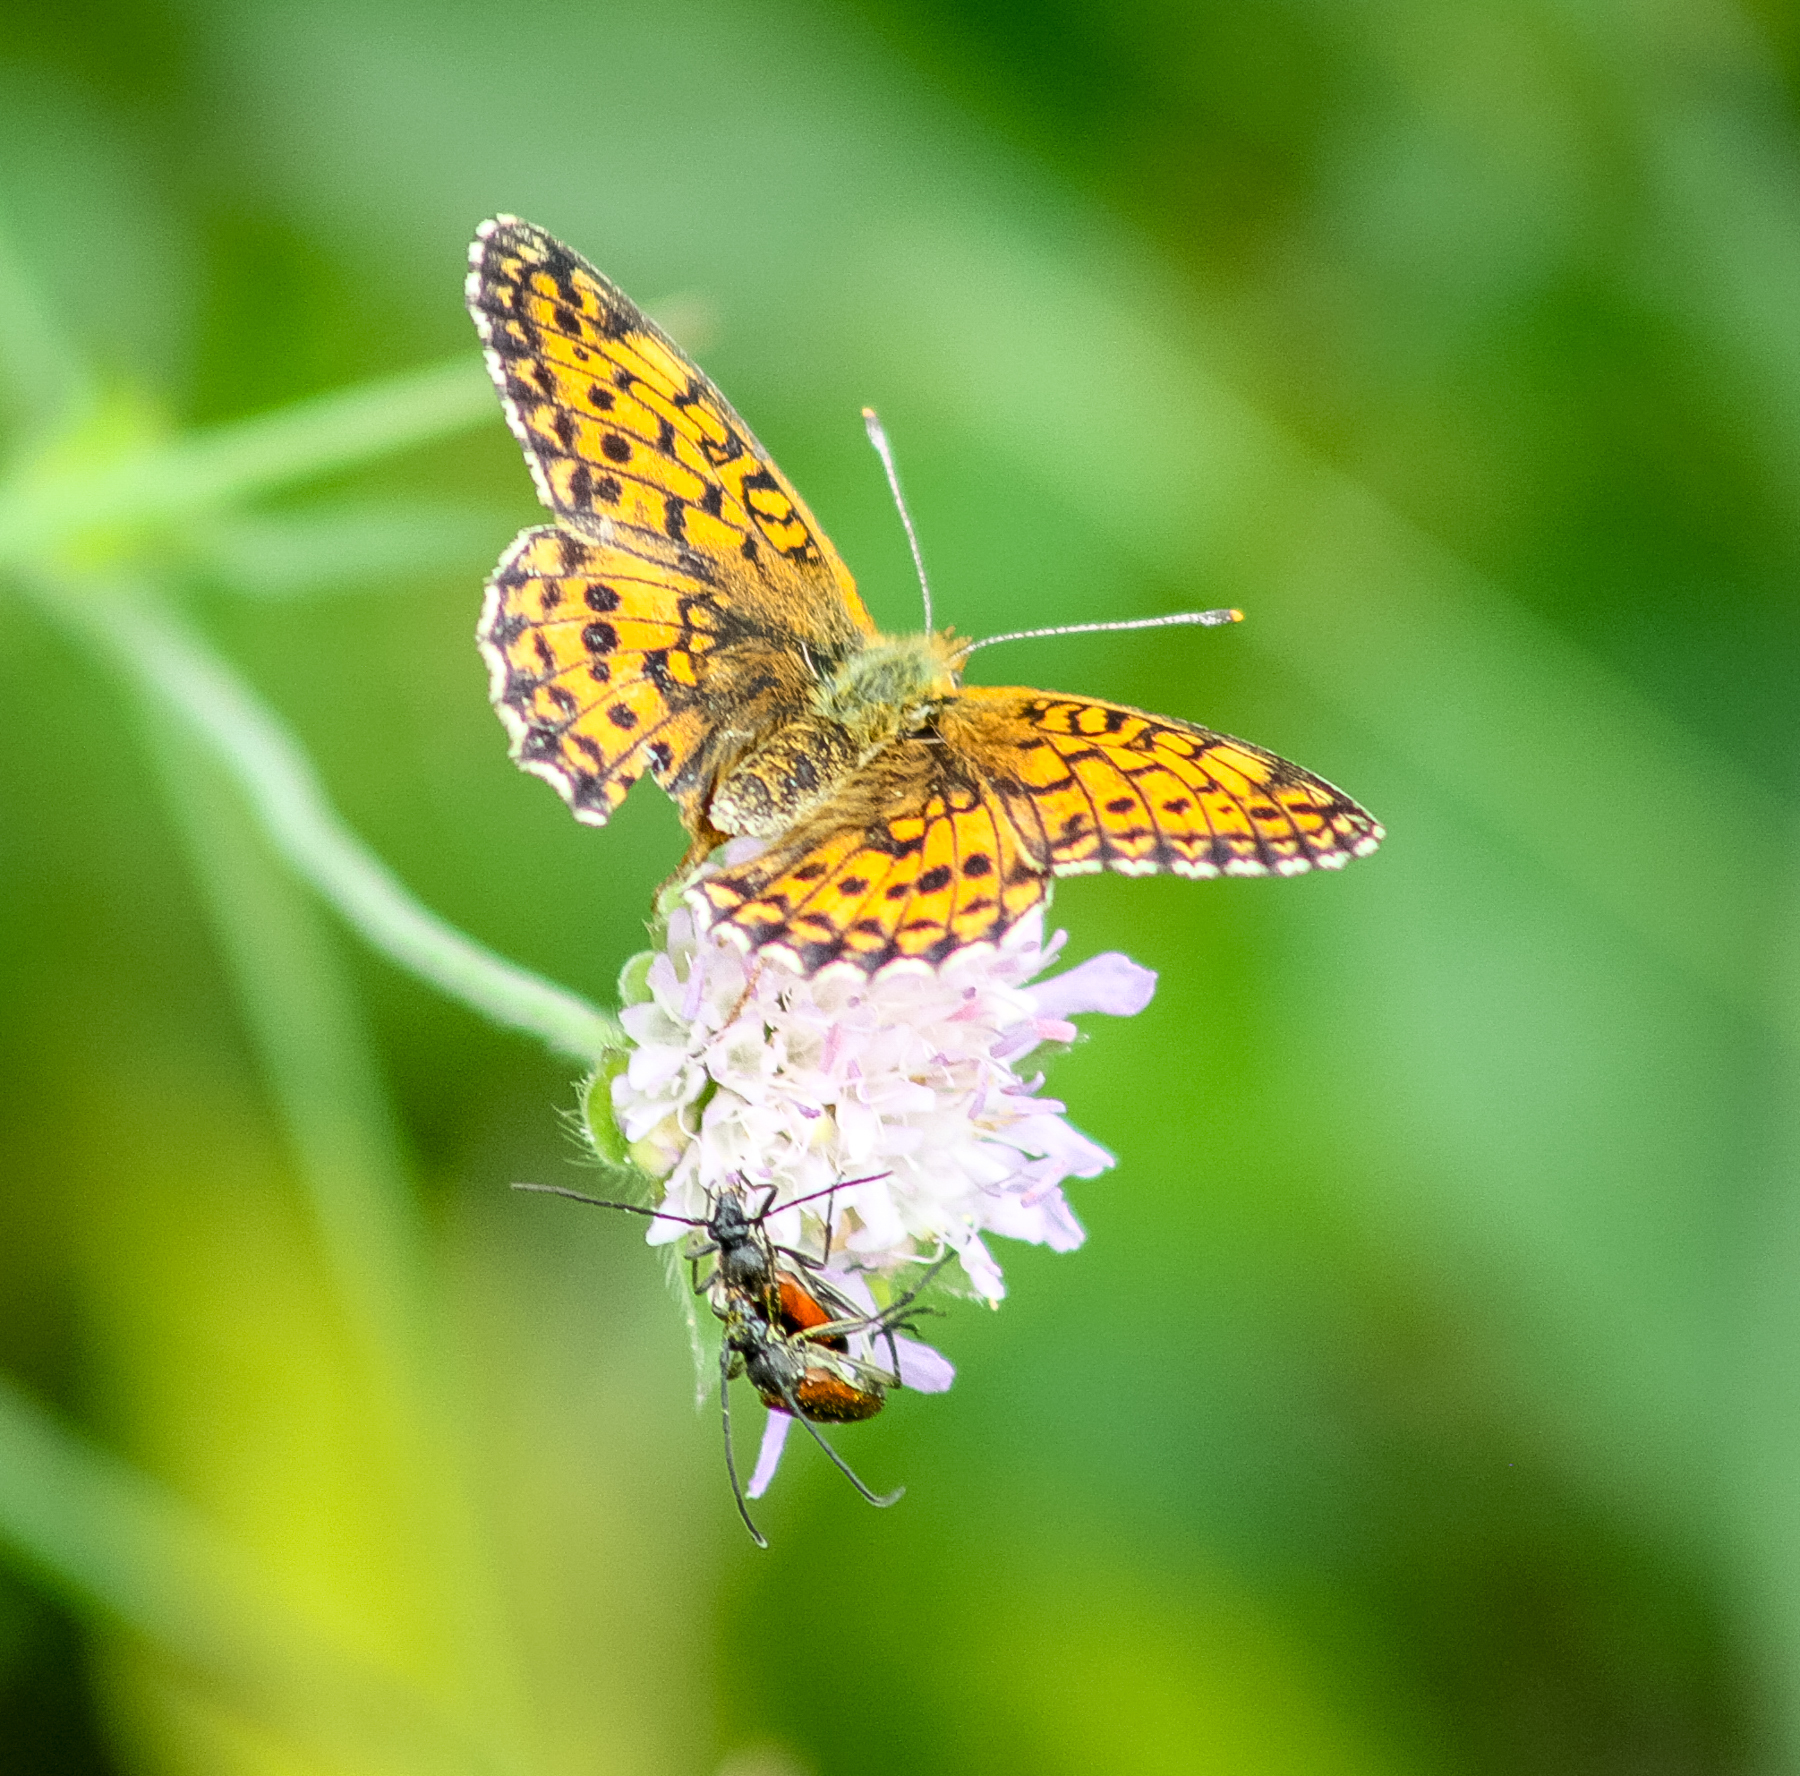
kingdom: Animalia
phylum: Arthropoda
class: Insecta
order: Lepidoptera
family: Nymphalidae
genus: Brenthis
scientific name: Brenthis ino
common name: Lesser marbled fritillary
